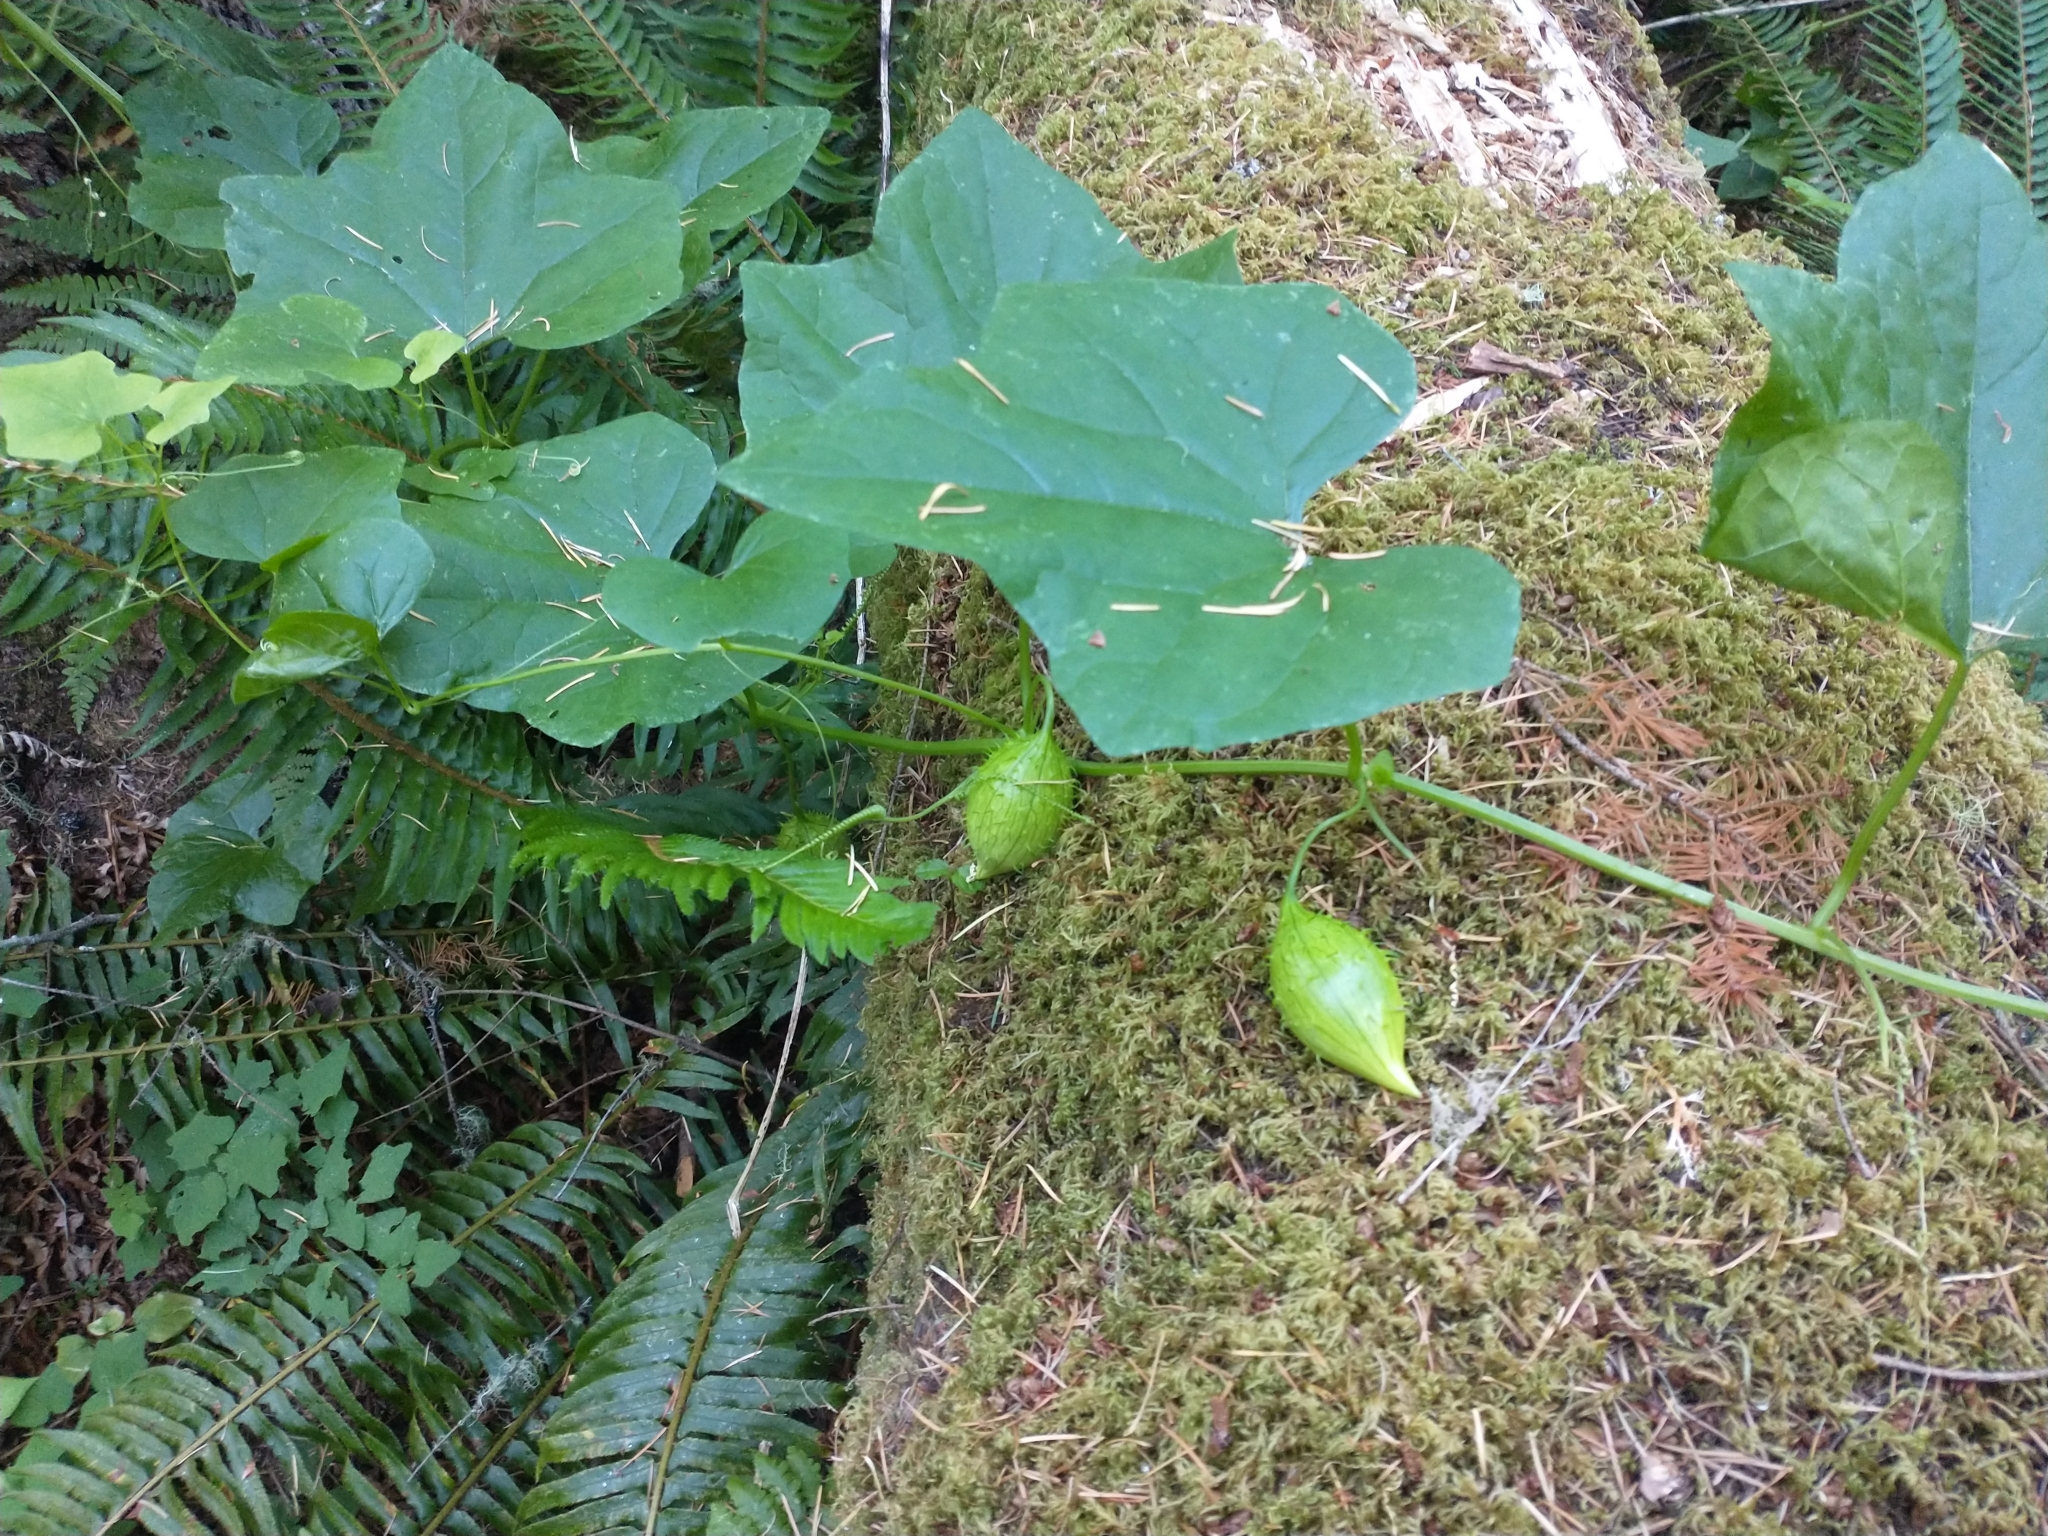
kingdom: Plantae
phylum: Tracheophyta
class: Magnoliopsida
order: Cucurbitales
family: Cucurbitaceae
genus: Marah
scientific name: Marah oregana
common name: Coastal manroot
